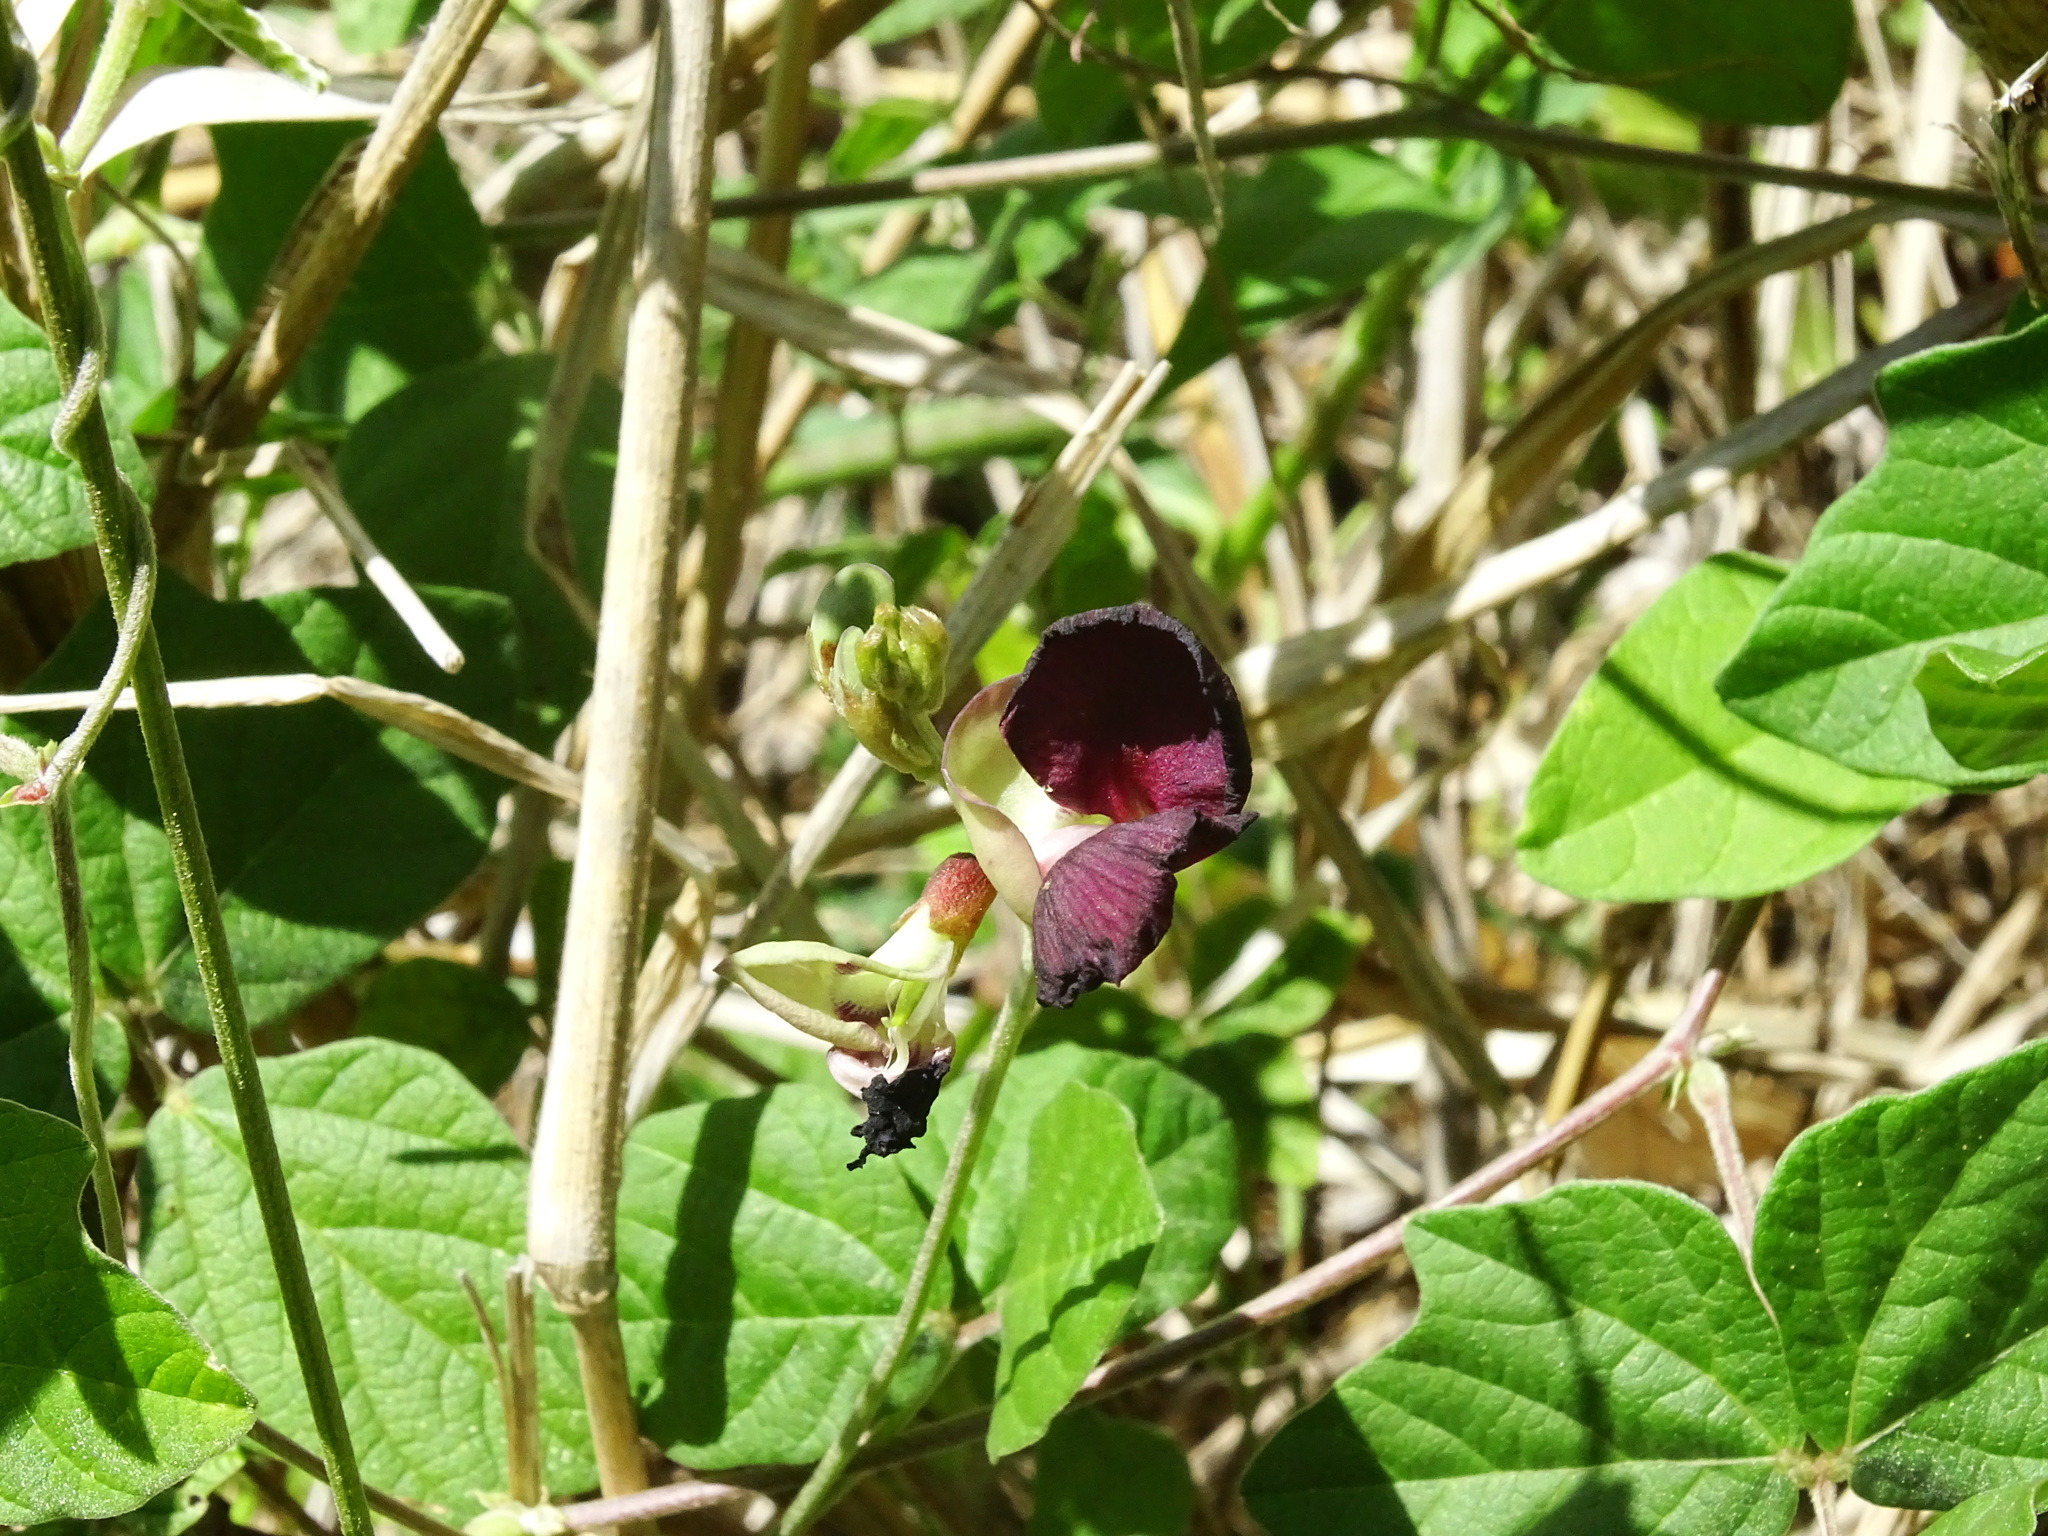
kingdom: Plantae
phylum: Tracheophyta
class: Magnoliopsida
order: Fabales
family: Fabaceae
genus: Macroptilium
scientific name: Macroptilium atropurpureum
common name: Purple bushbean
